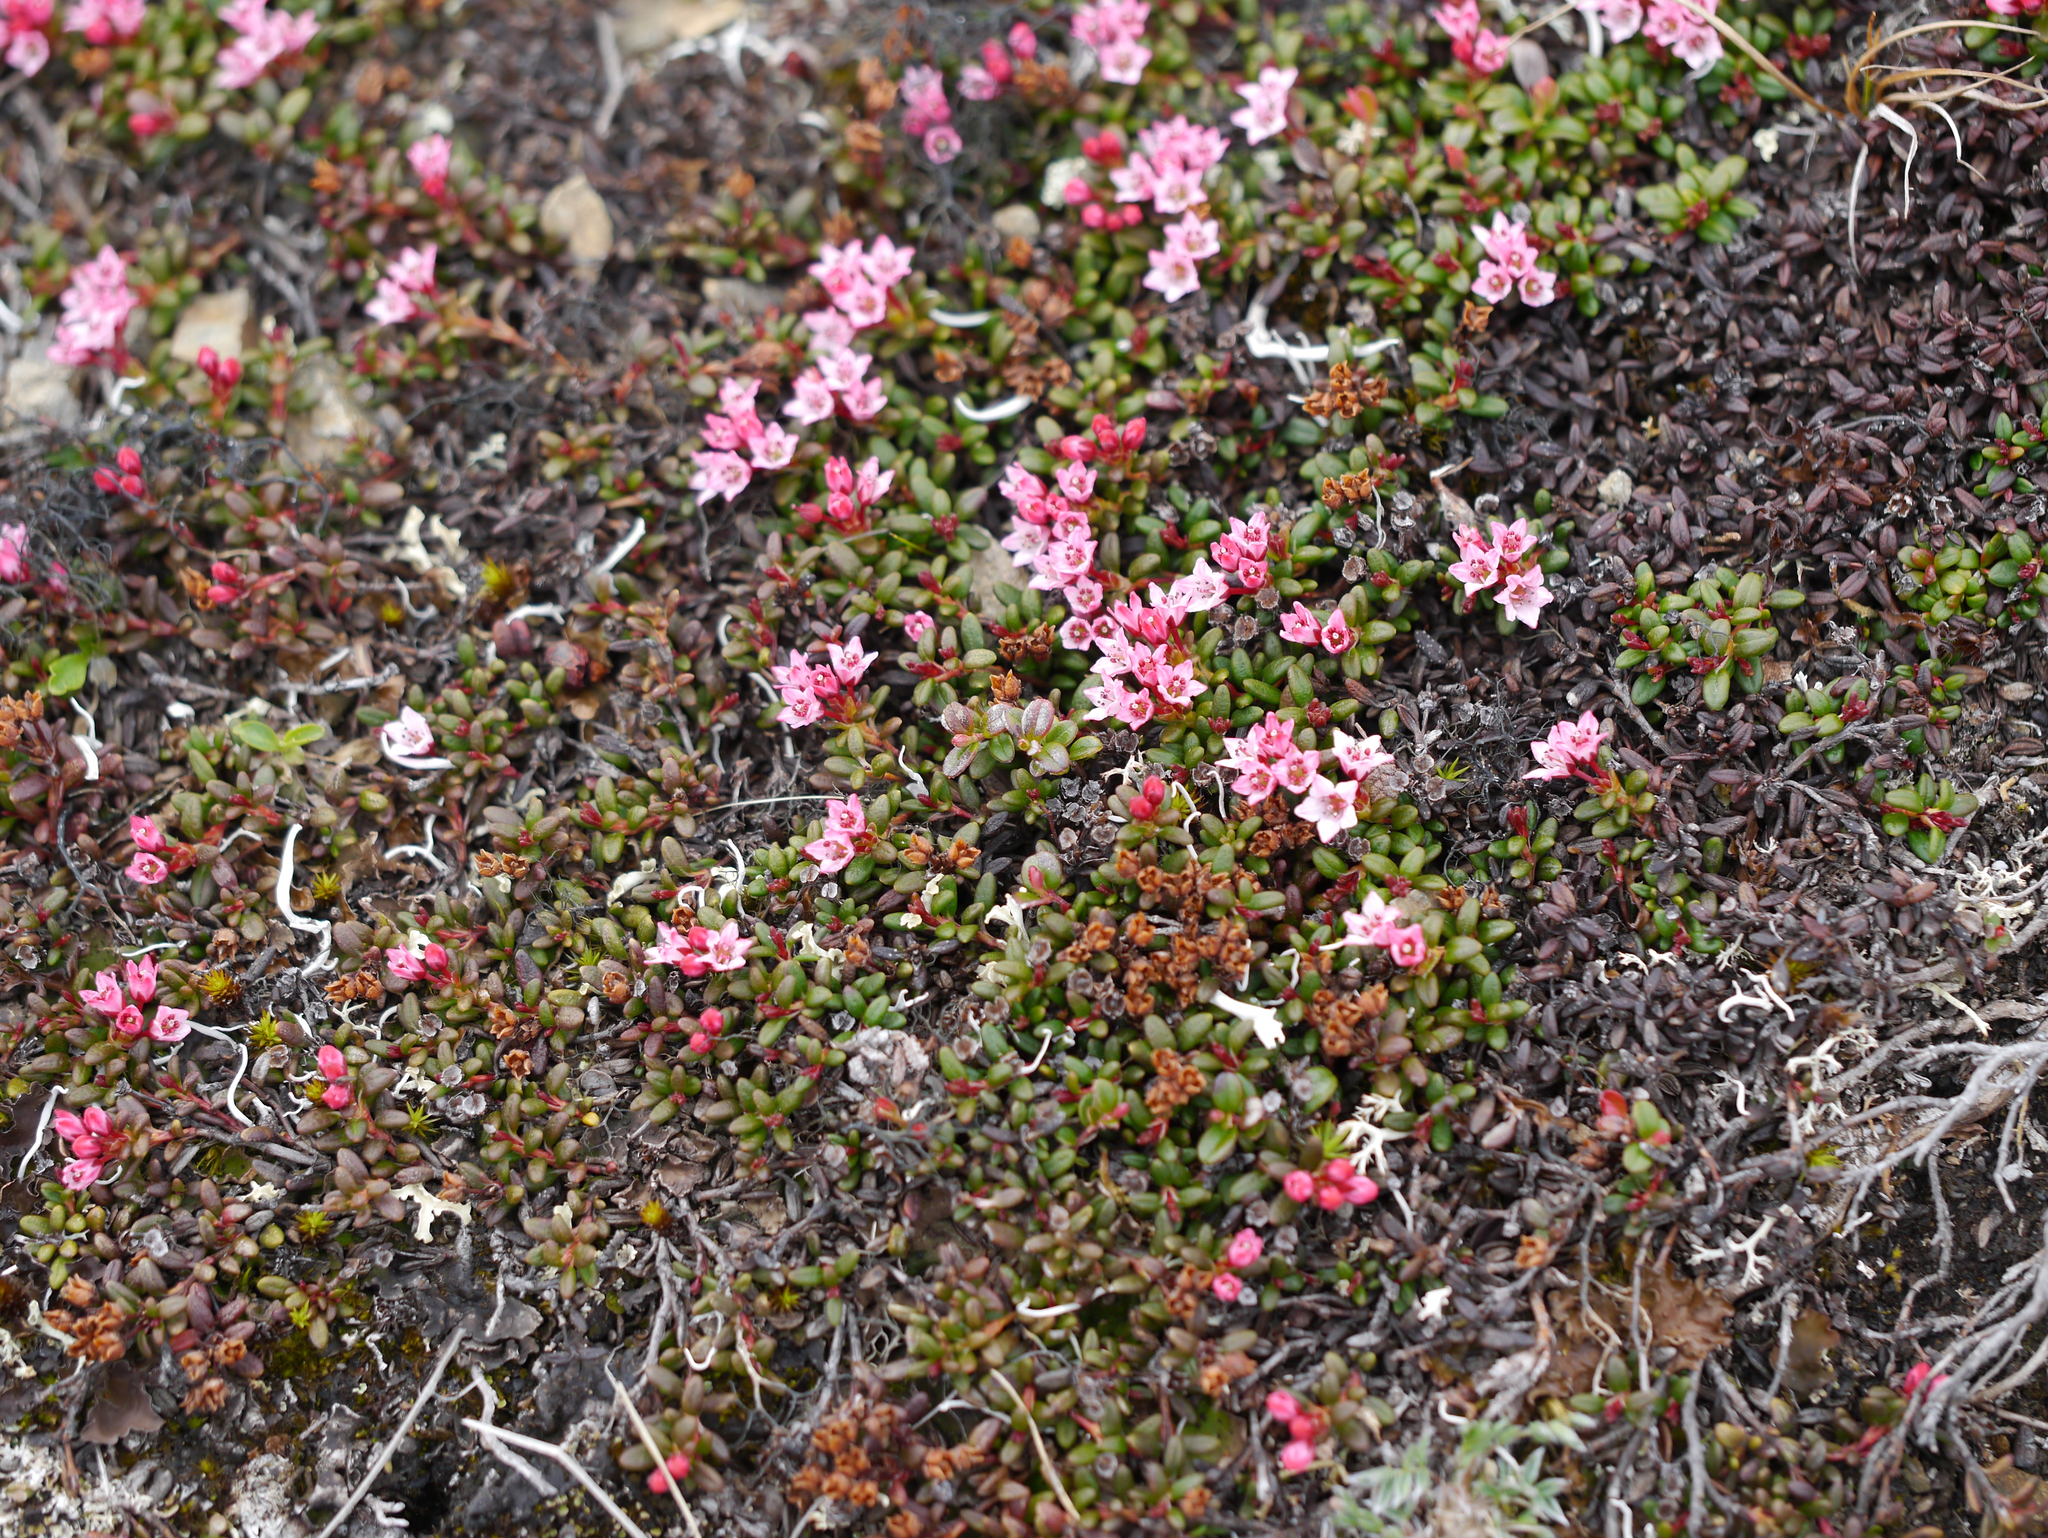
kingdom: Plantae
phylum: Tracheophyta
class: Magnoliopsida
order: Ericales
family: Ericaceae
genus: Kalmia
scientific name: Kalmia procumbens
